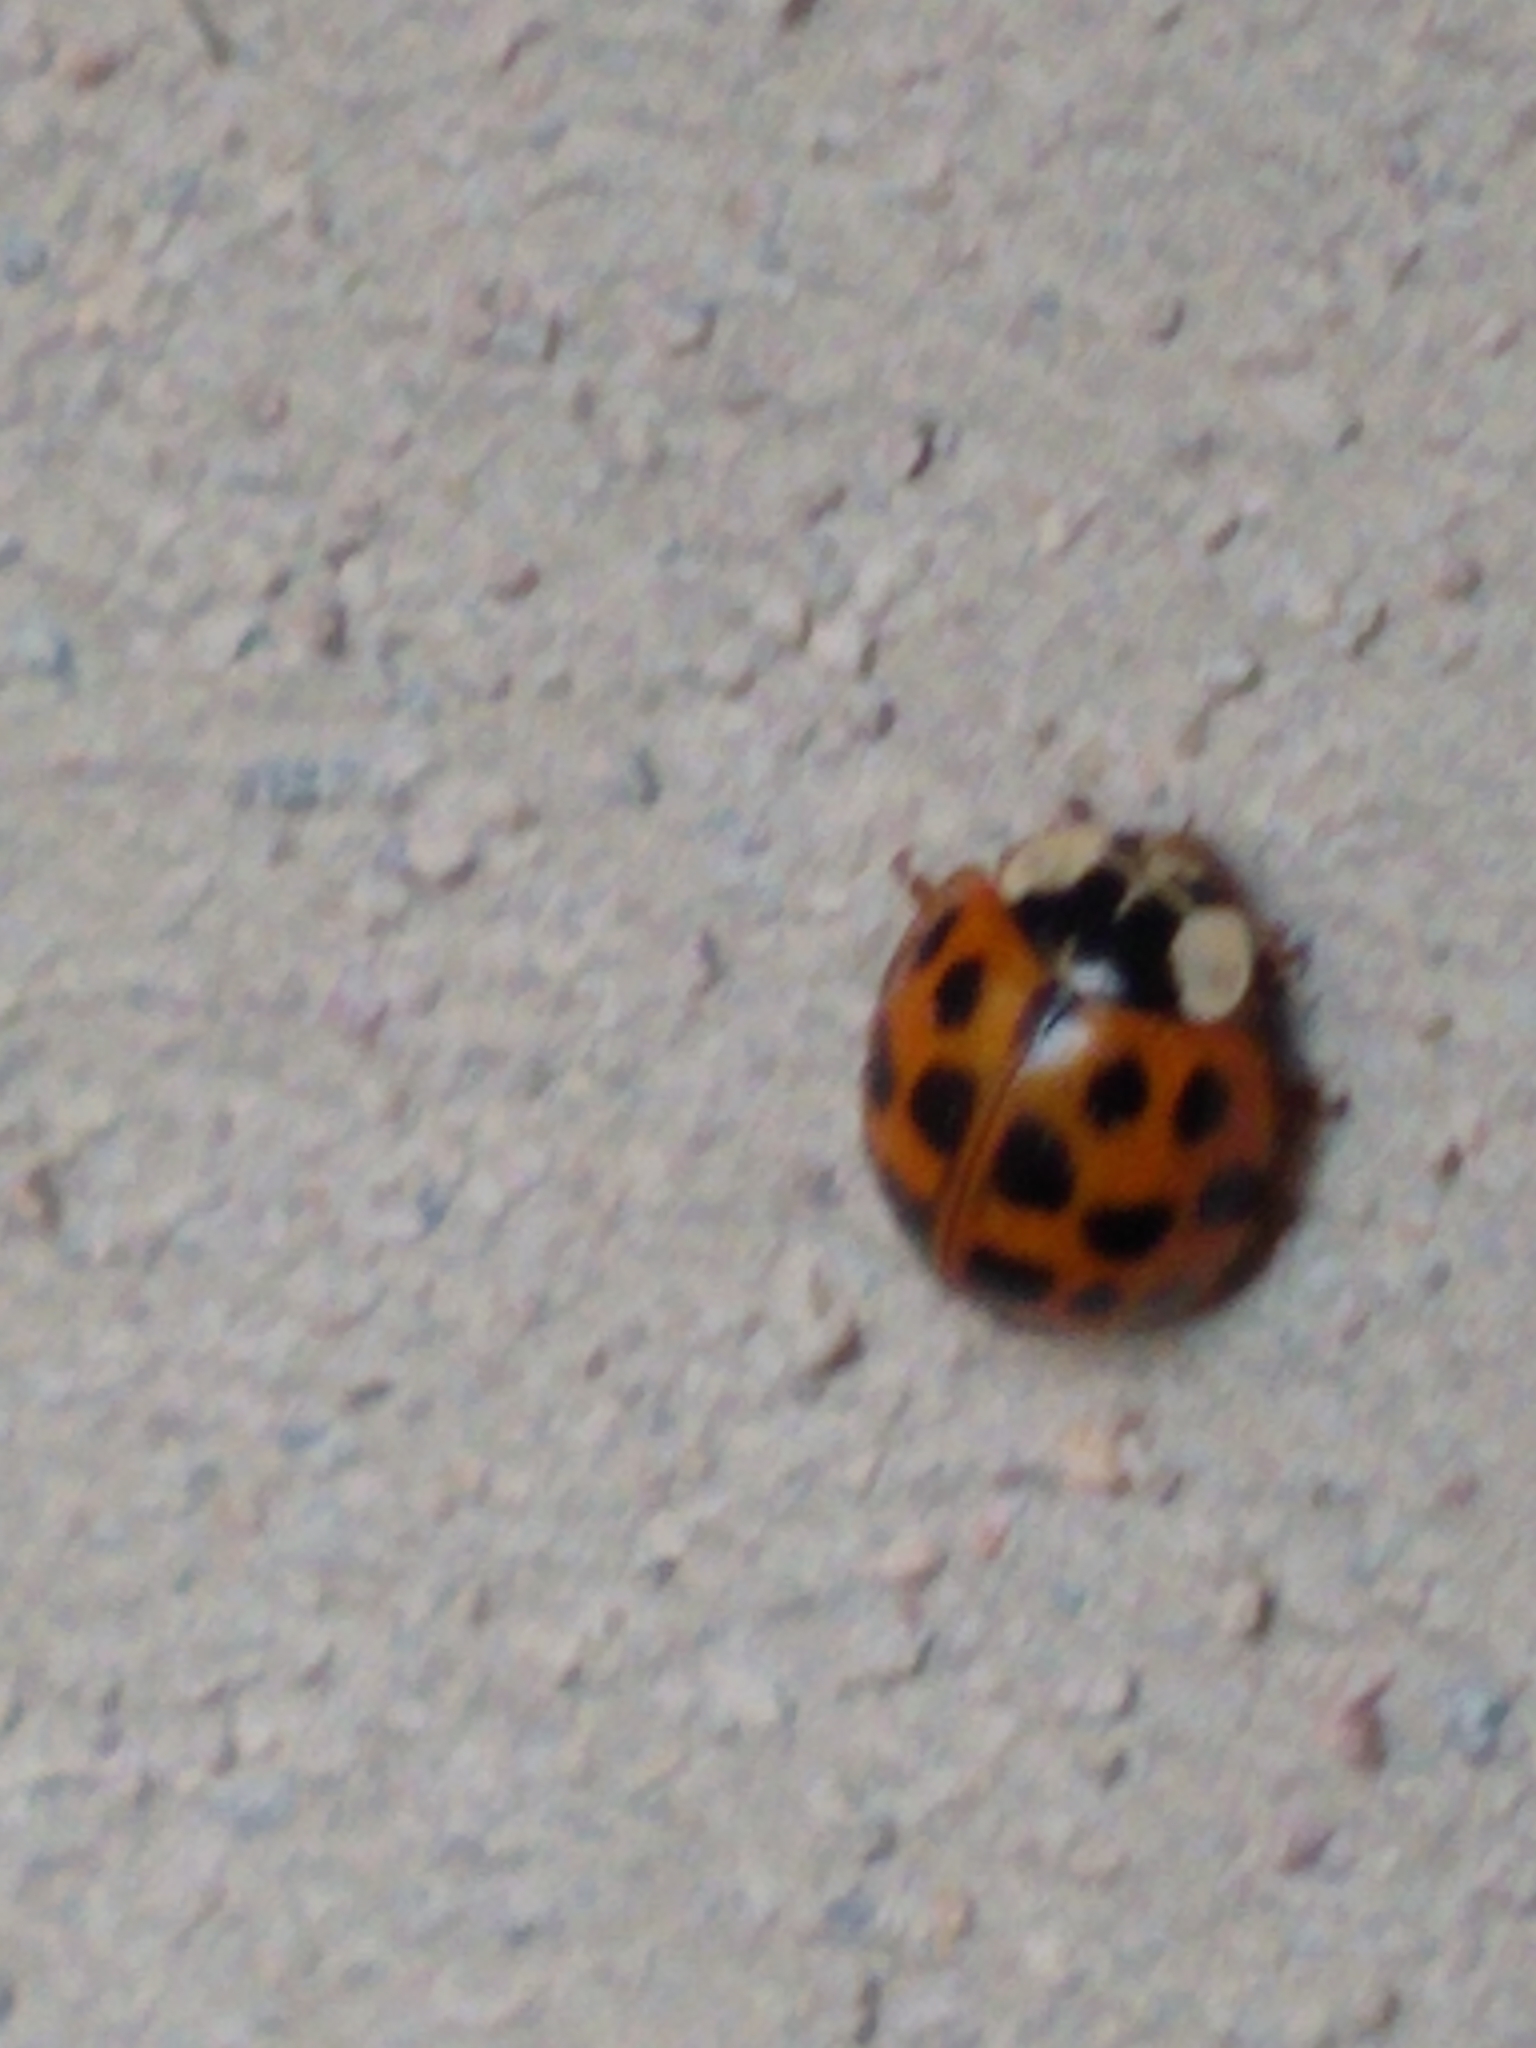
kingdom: Animalia
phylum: Arthropoda
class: Insecta
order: Coleoptera
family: Coccinellidae
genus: Harmonia
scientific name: Harmonia axyridis
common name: Harlequin ladybird
